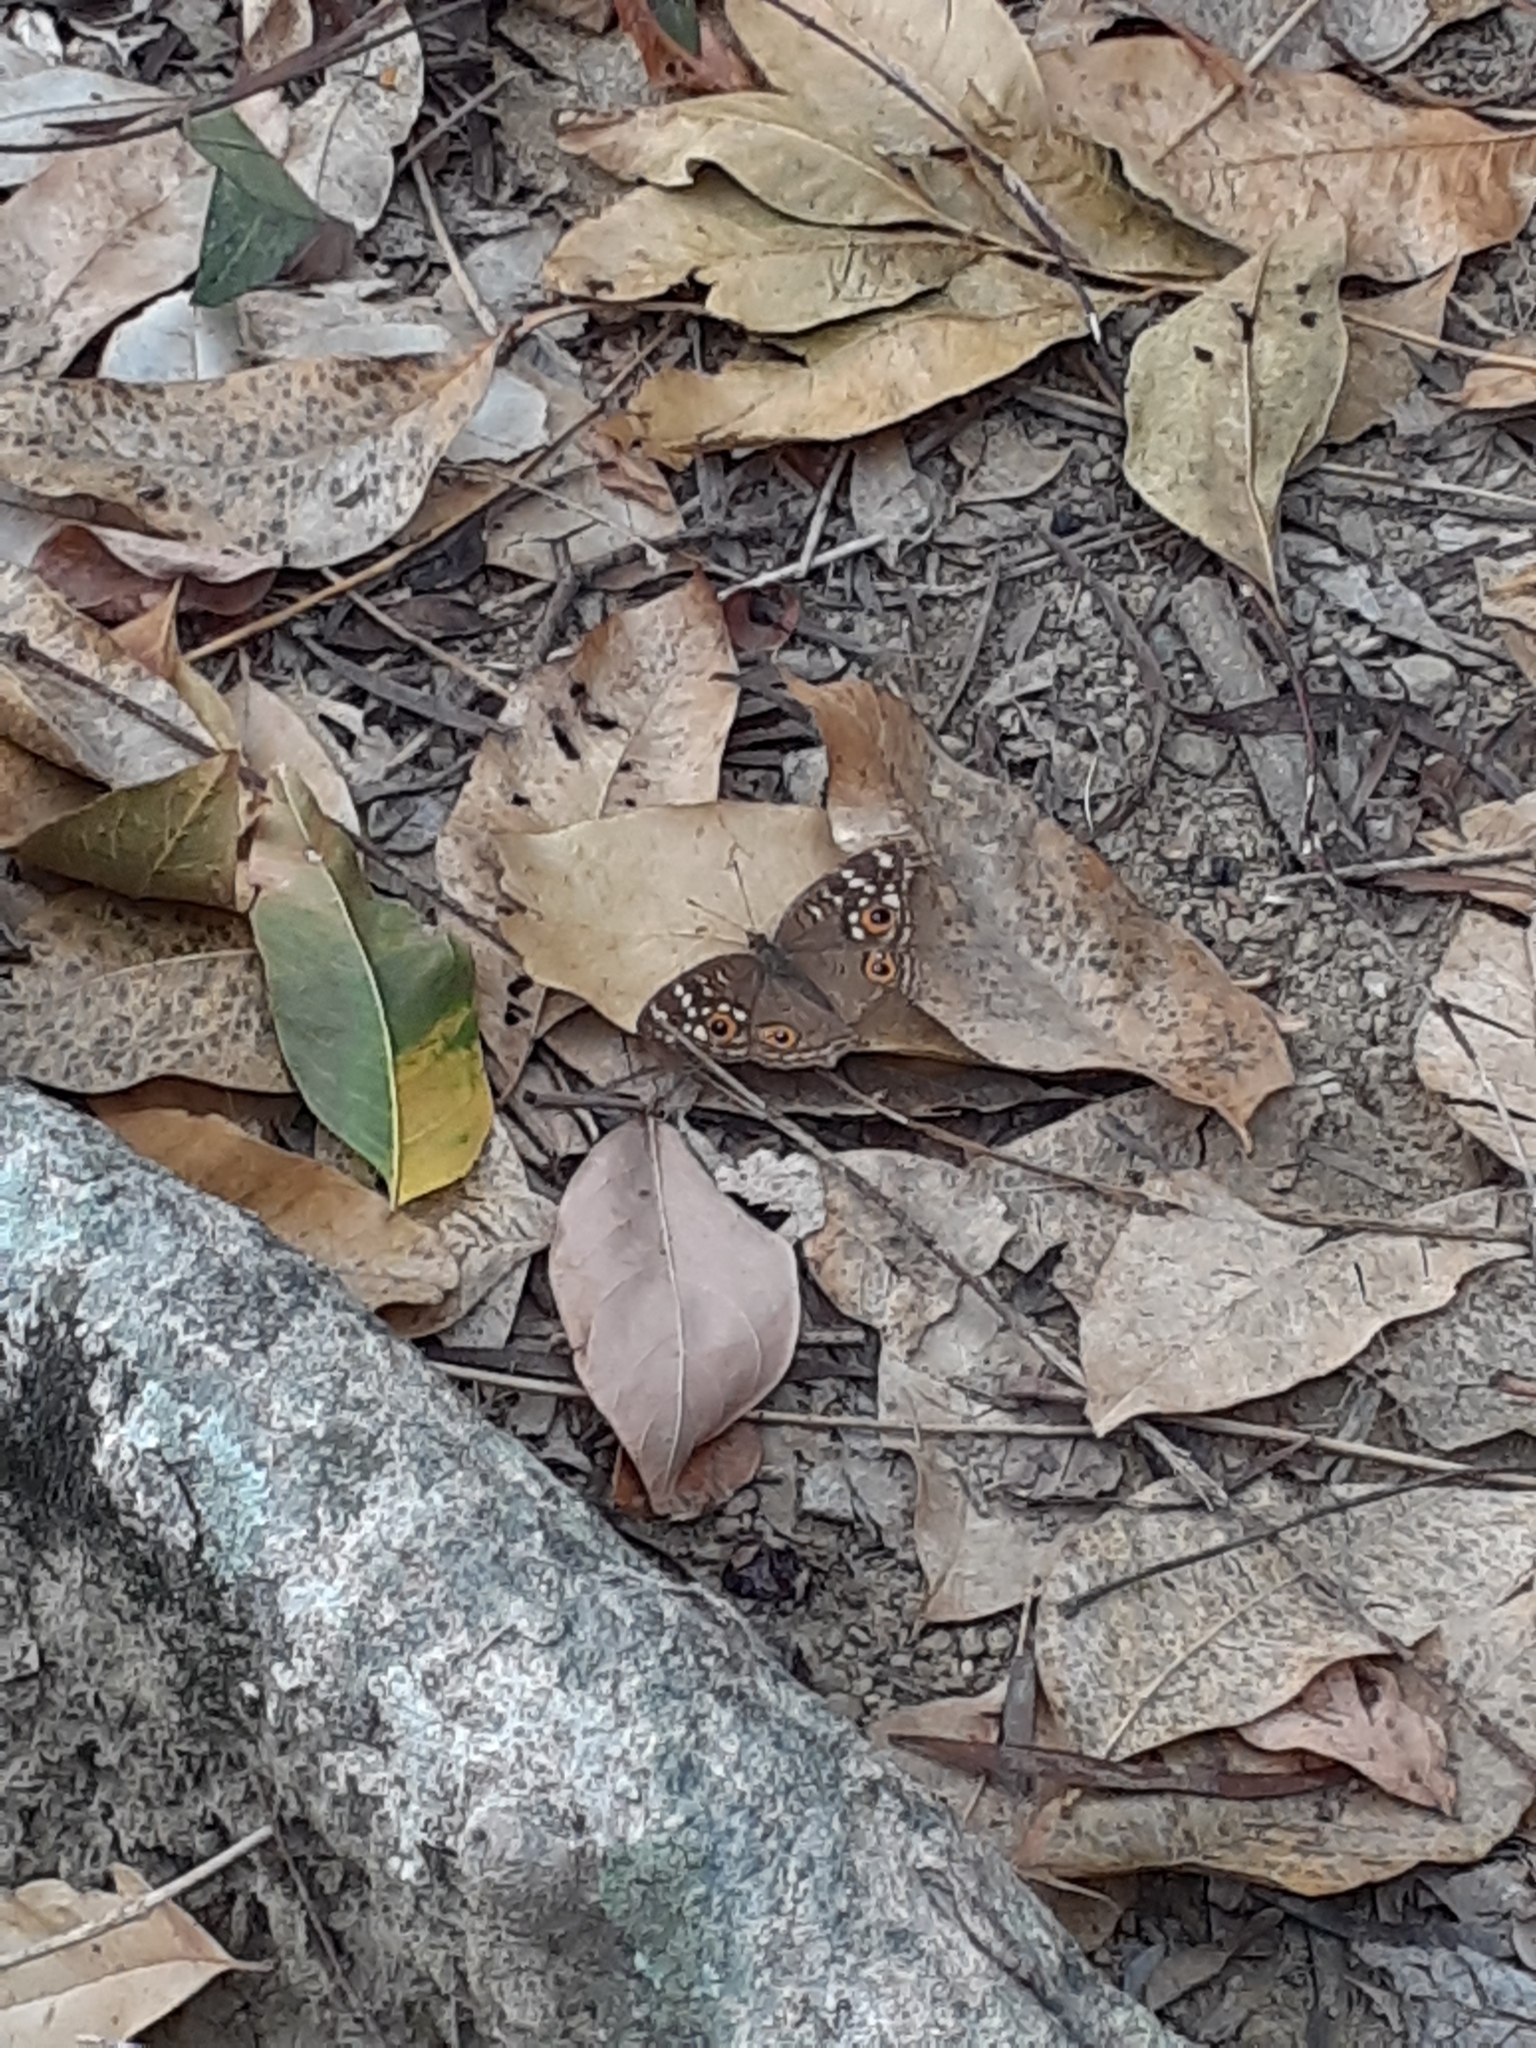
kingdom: Animalia
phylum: Arthropoda
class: Insecta
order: Lepidoptera
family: Nymphalidae
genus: Junonia
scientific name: Junonia lemonias
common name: Lemon pansy
